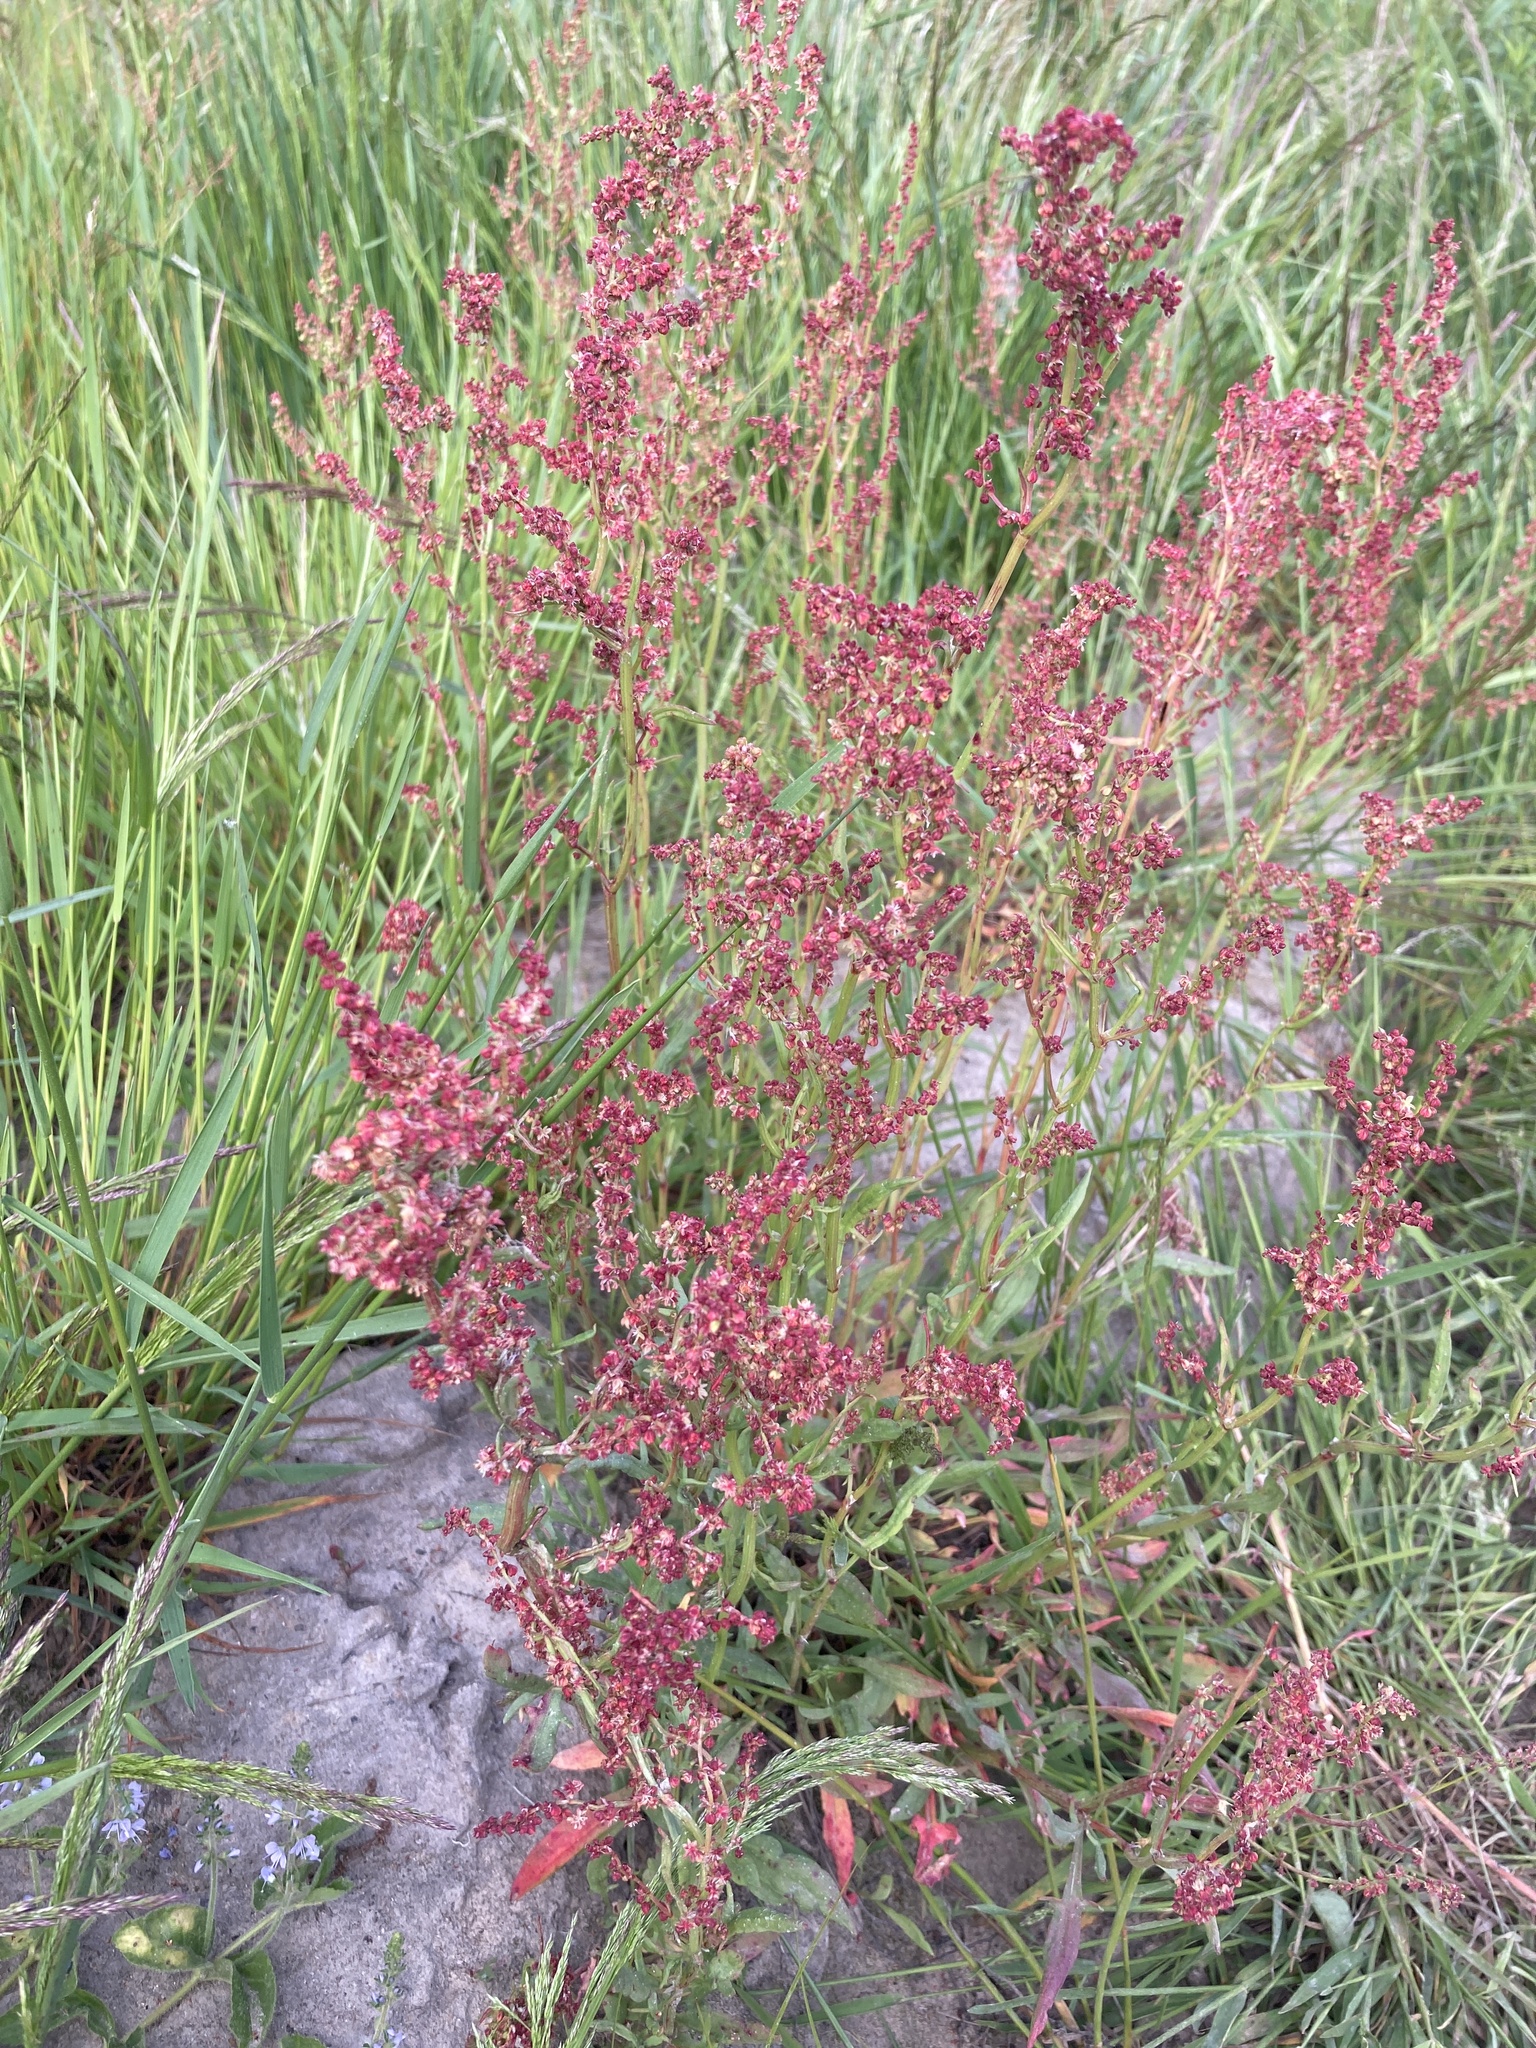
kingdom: Plantae
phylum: Tracheophyta
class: Magnoliopsida
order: Caryophyllales
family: Polygonaceae
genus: Rumex
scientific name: Rumex acetosella
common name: Common sheep sorrel
